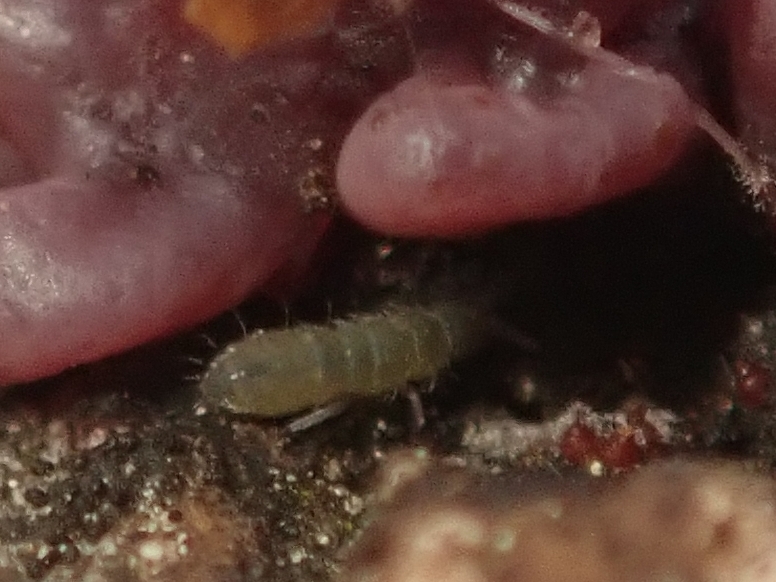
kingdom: Animalia
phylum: Arthropoda
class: Collembola
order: Entomobryomorpha
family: Isotomidae
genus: Isotoma
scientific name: Isotoma viridis
